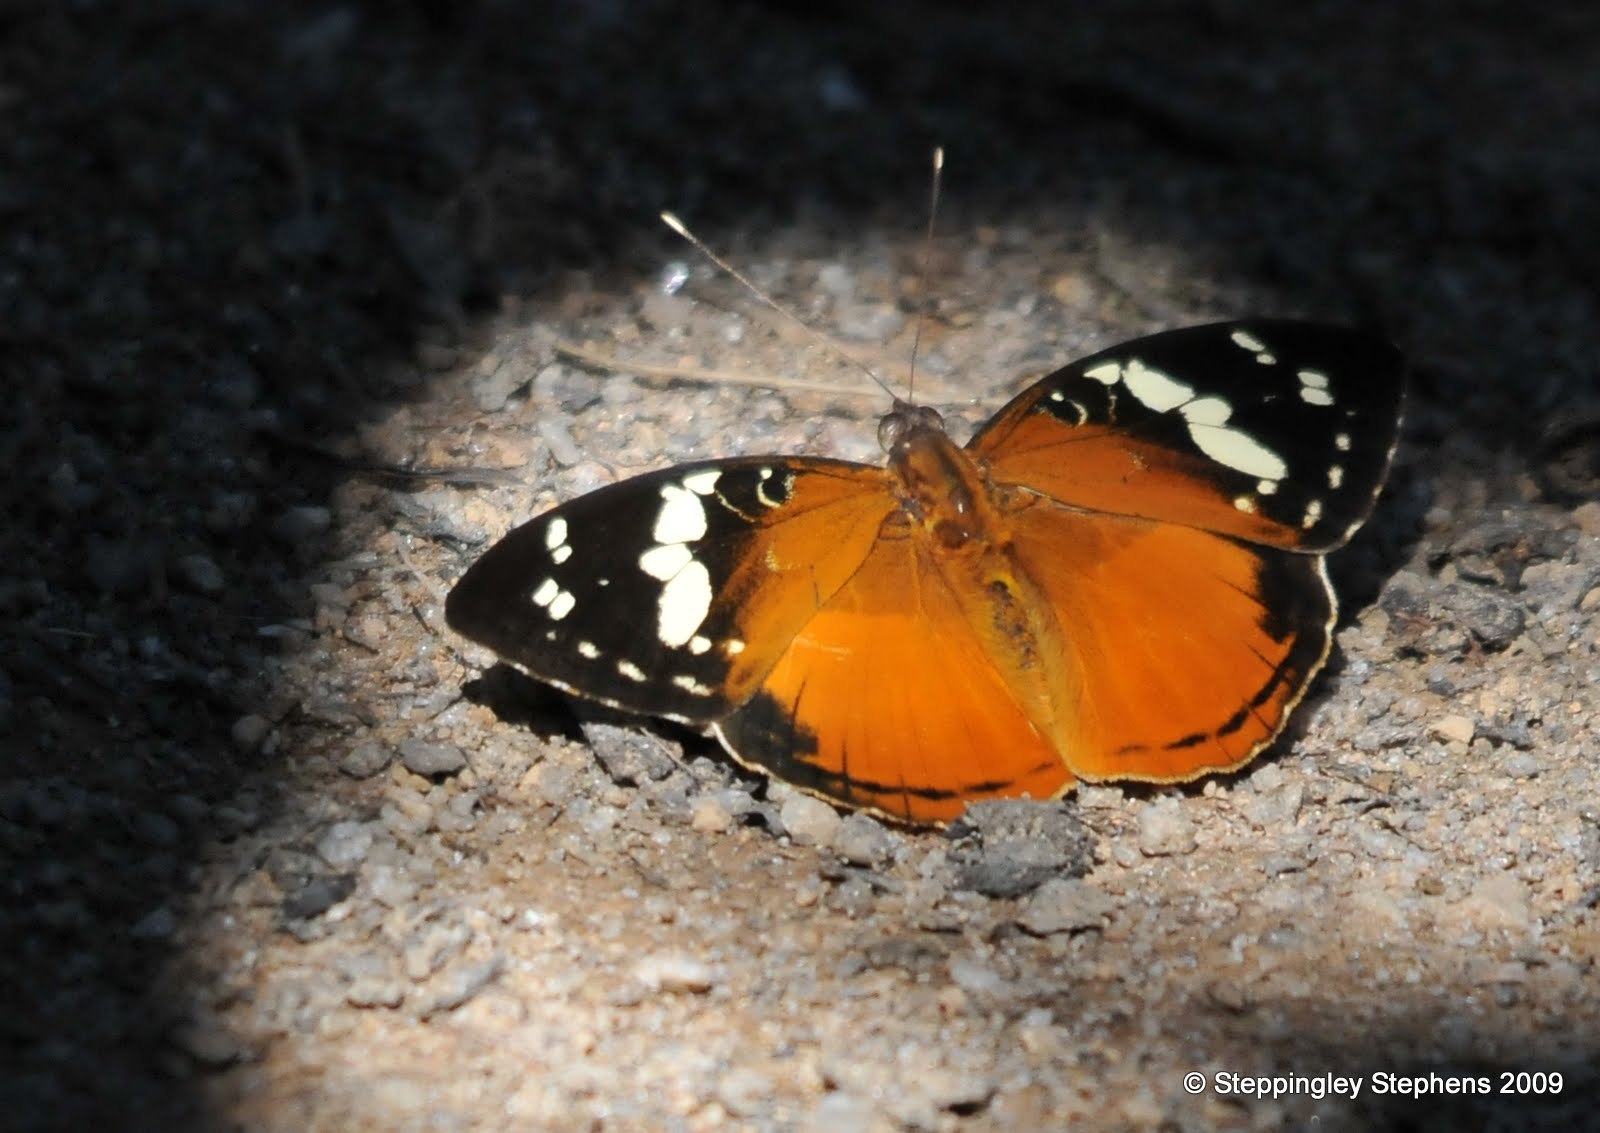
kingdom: Animalia
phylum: Arthropoda
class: Insecta
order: Lepidoptera
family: Nymphalidae
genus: Aterica
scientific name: Aterica rabena
